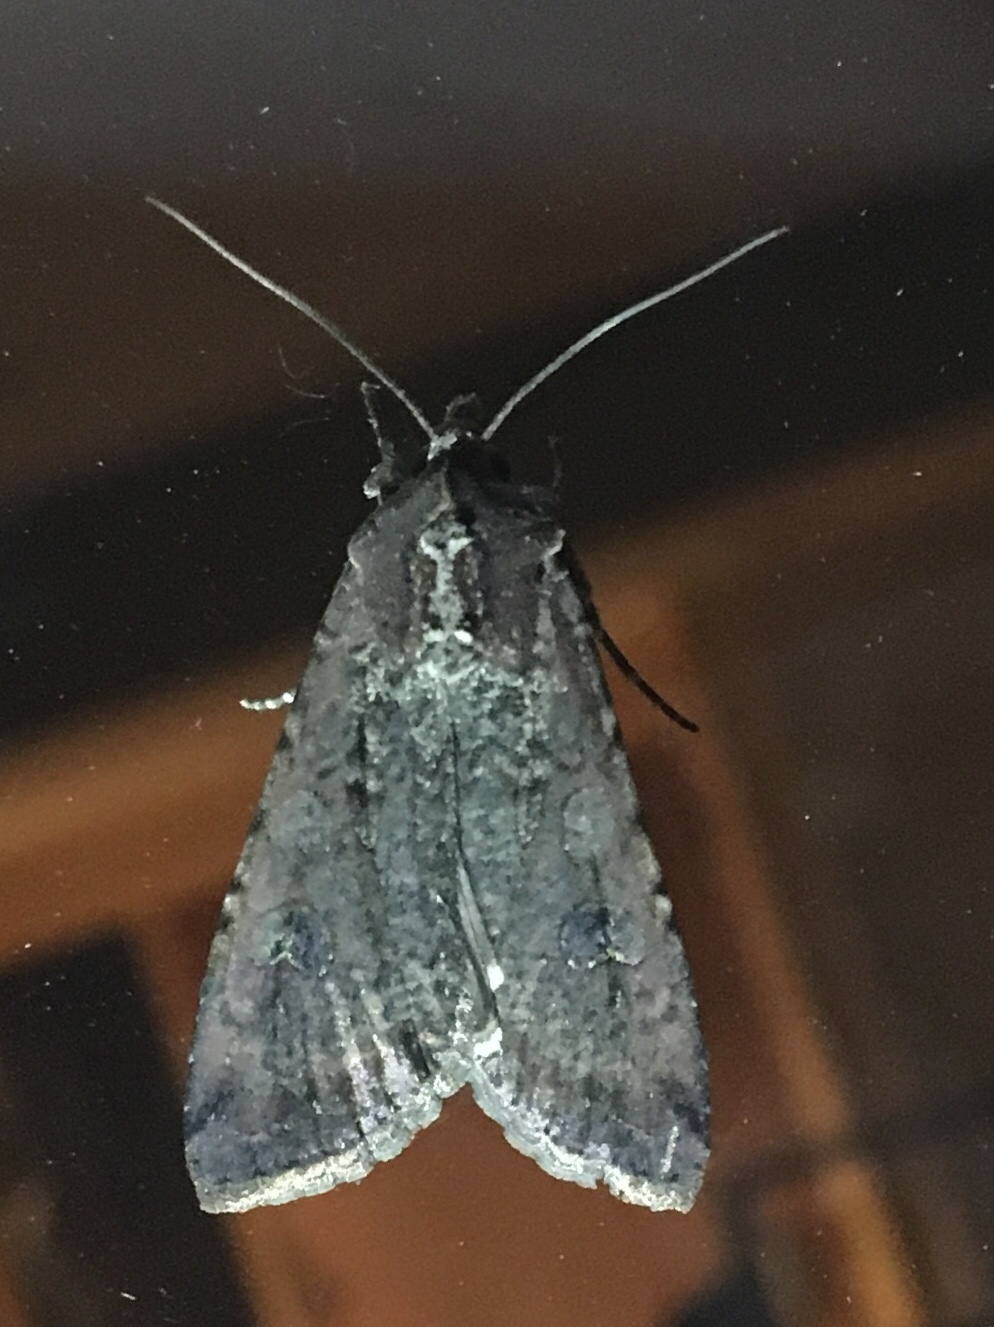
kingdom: Animalia
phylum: Arthropoda
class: Insecta
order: Lepidoptera
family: Noctuidae
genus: Peridroma
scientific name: Peridroma saucia
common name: Pearly underwing
